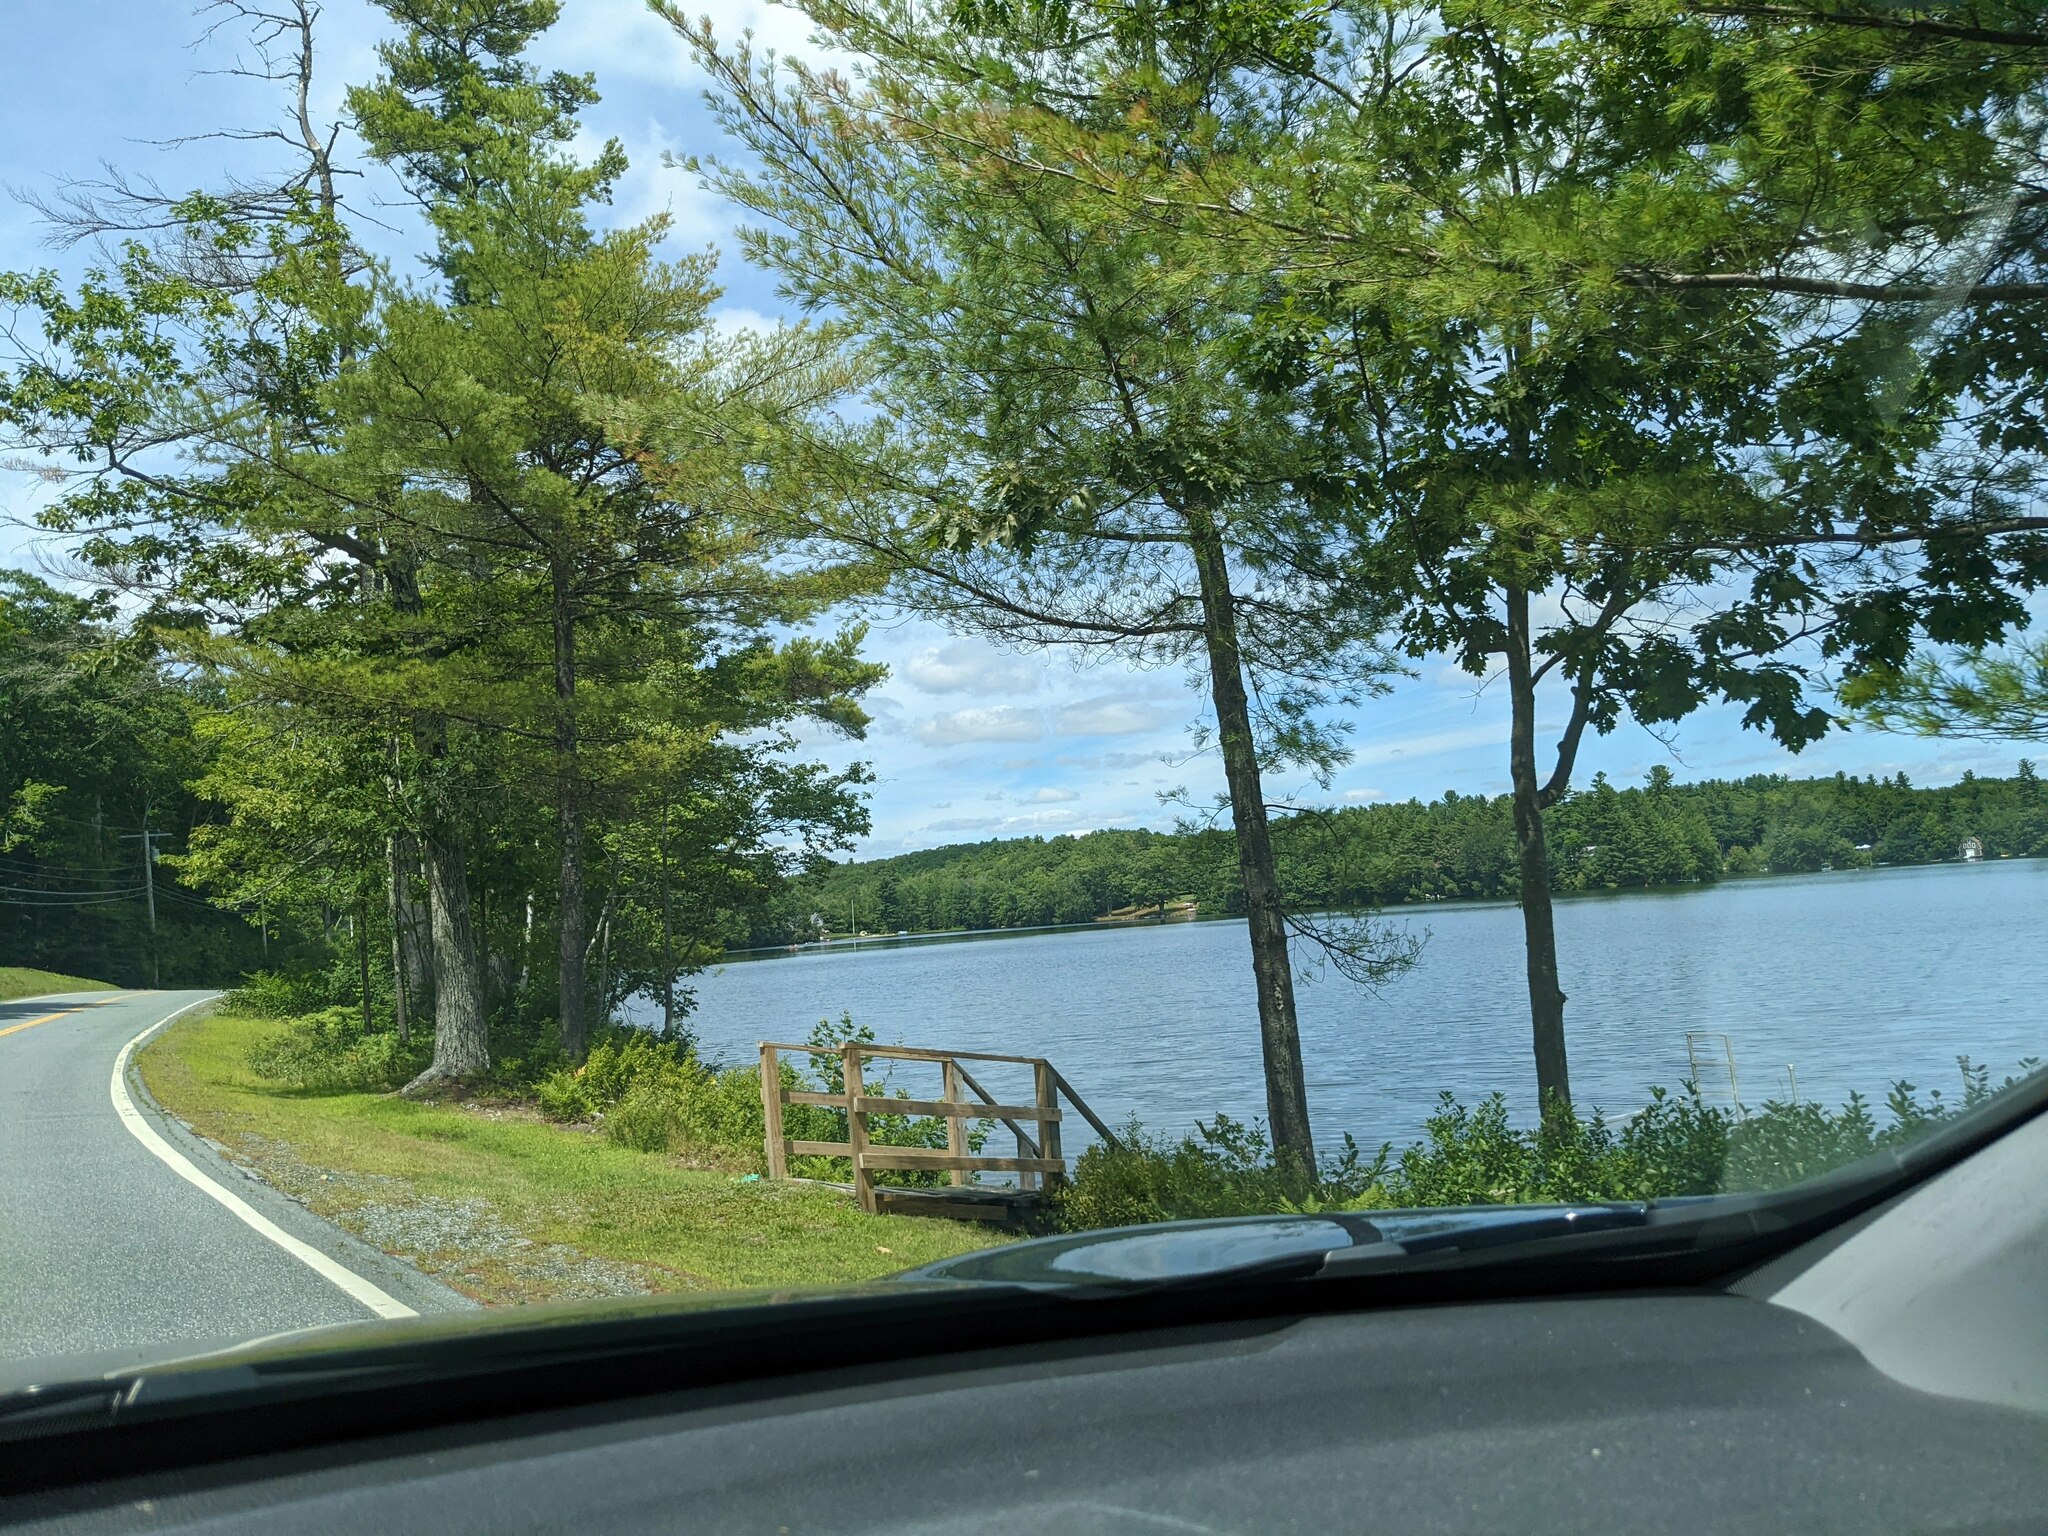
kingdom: Plantae
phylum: Tracheophyta
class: Pinopsida
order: Pinales
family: Pinaceae
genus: Pinus
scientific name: Pinus strobus
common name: Weymouth pine
